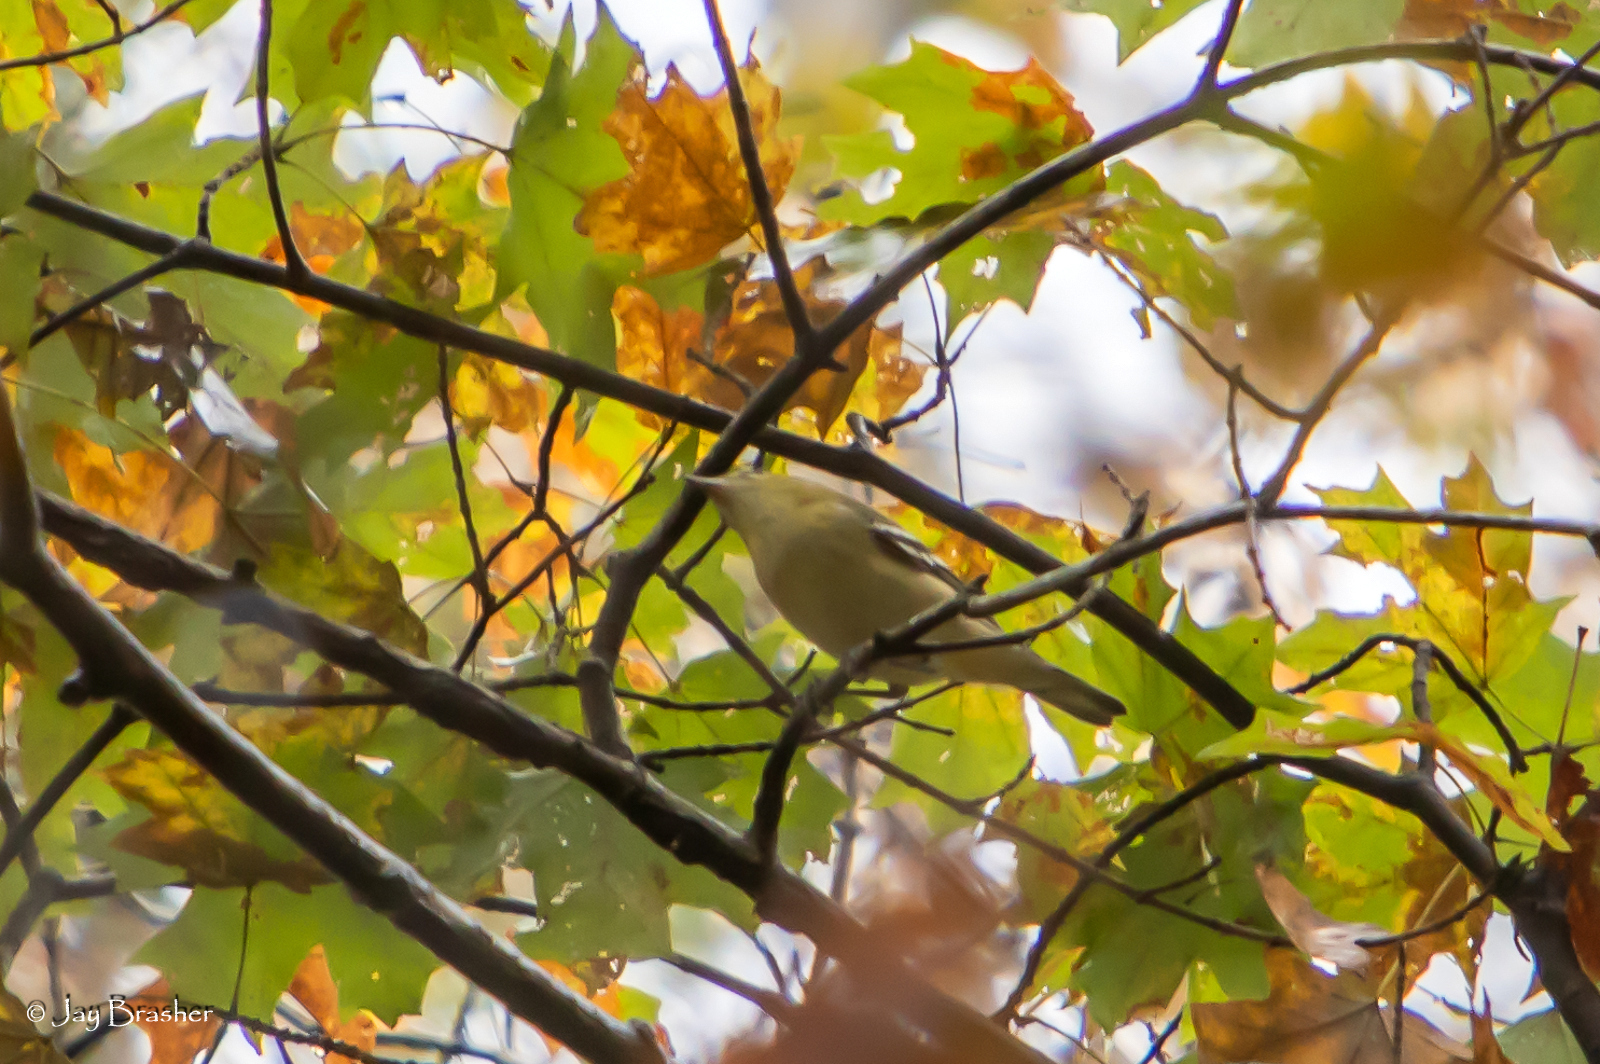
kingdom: Animalia
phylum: Chordata
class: Aves
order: Passeriformes
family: Parulidae
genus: Setophaga
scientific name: Setophaga castanea
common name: Bay-breasted warbler
